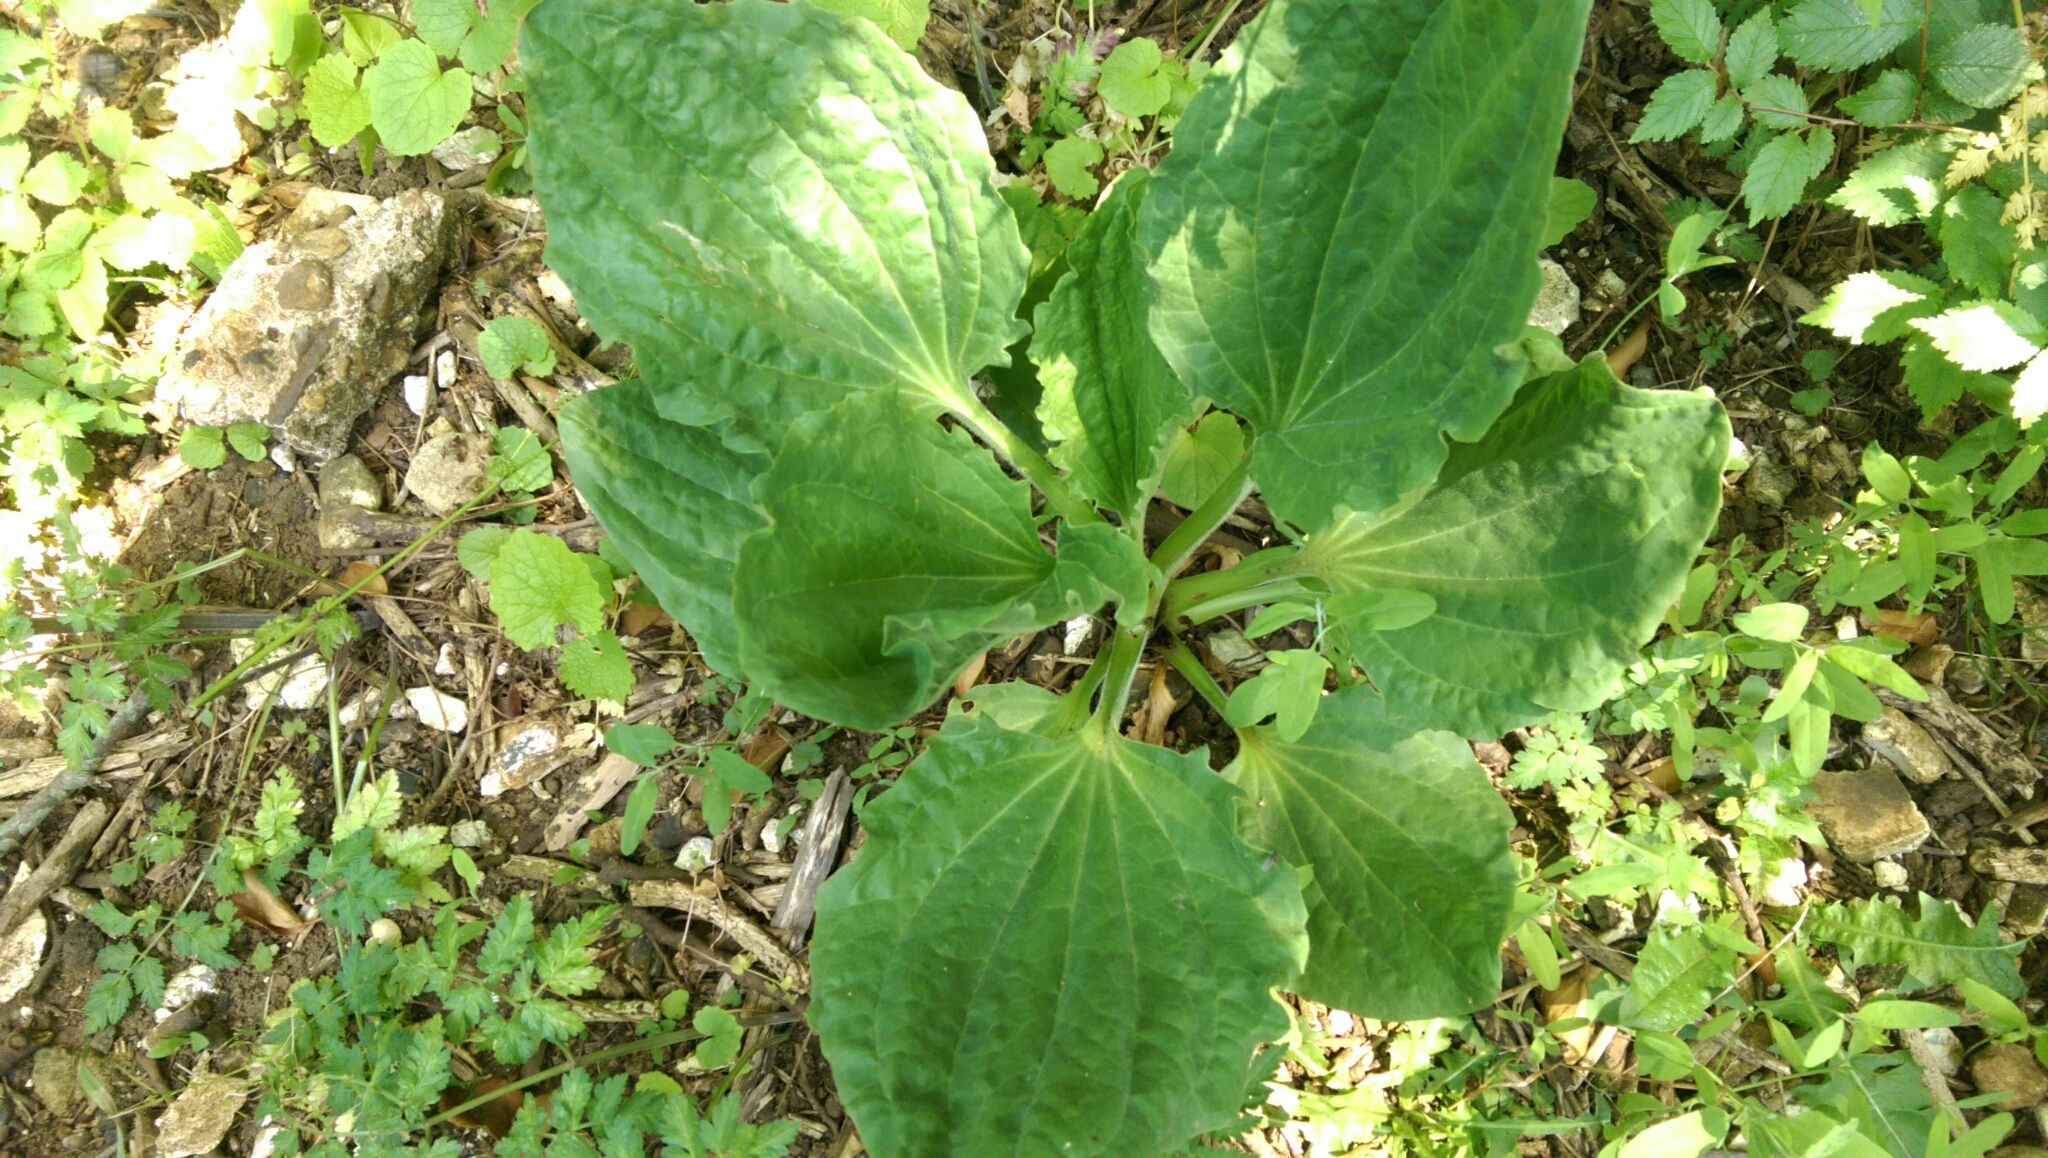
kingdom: Plantae
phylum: Tracheophyta
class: Magnoliopsida
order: Lamiales
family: Plantaginaceae
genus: Plantago
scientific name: Plantago major
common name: Common plantain
